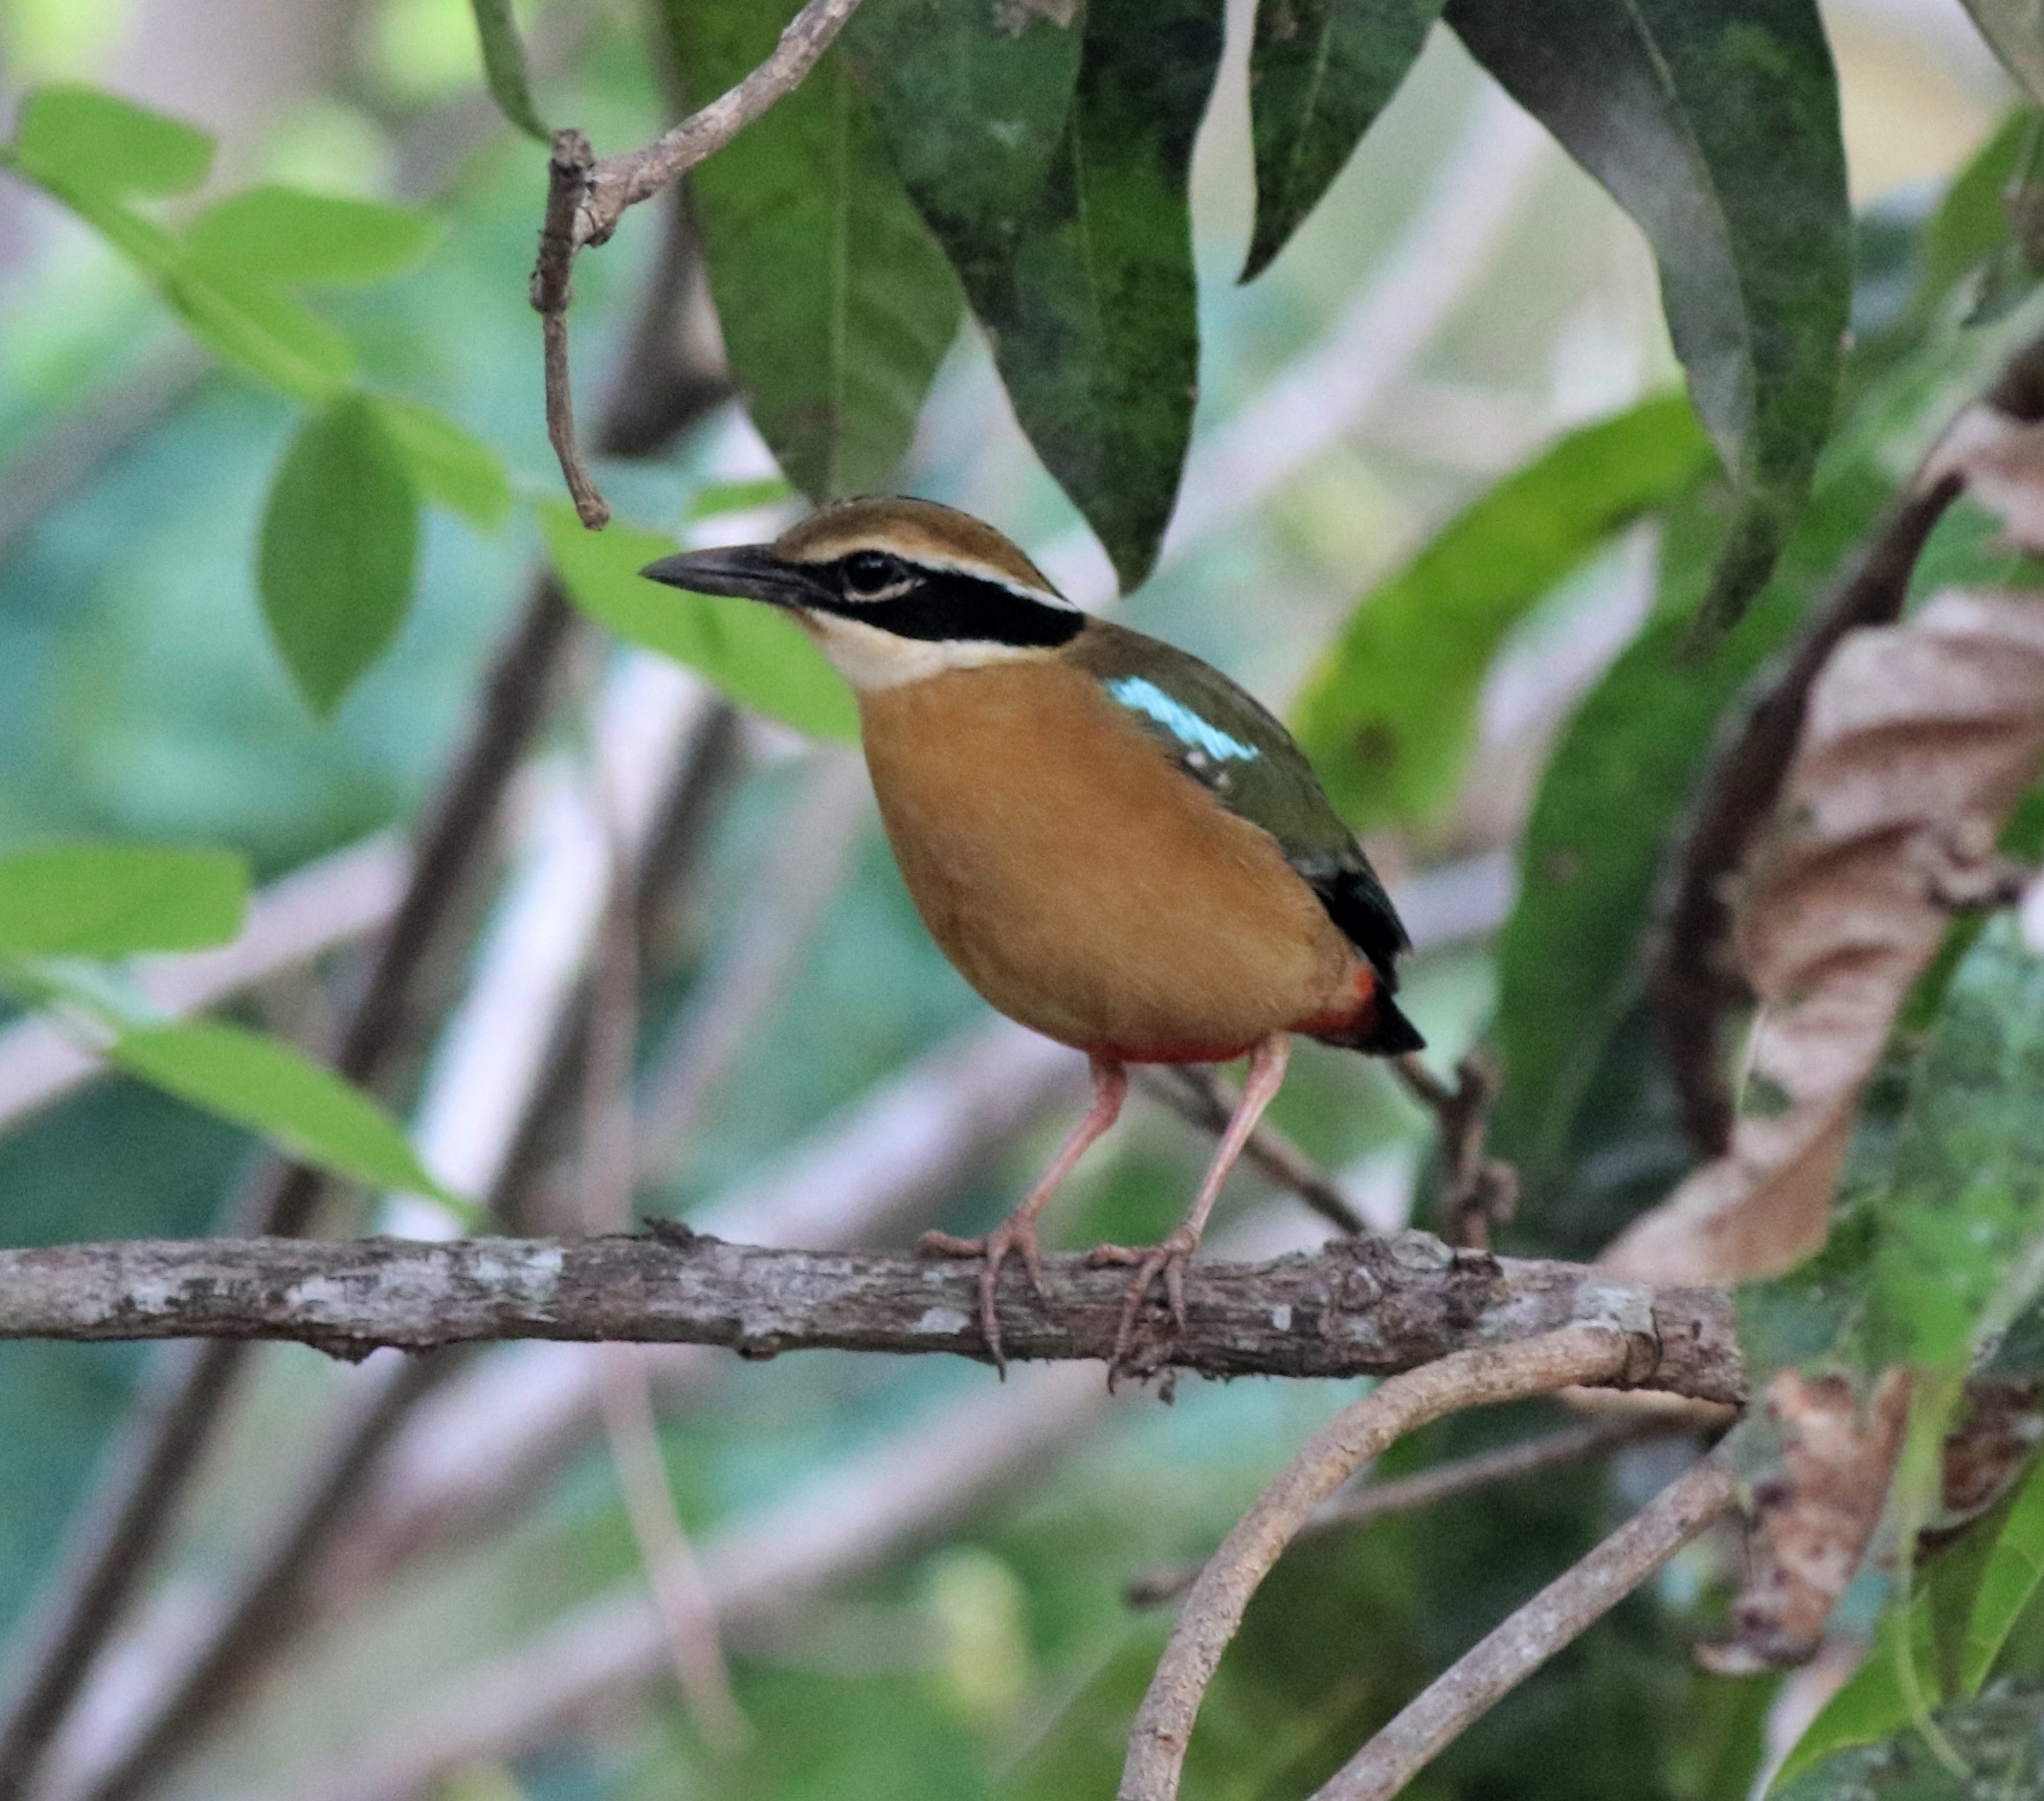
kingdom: Animalia
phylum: Chordata
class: Aves
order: Passeriformes
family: Pittidae
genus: Pitta
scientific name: Pitta brachyura
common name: Indian pitta
